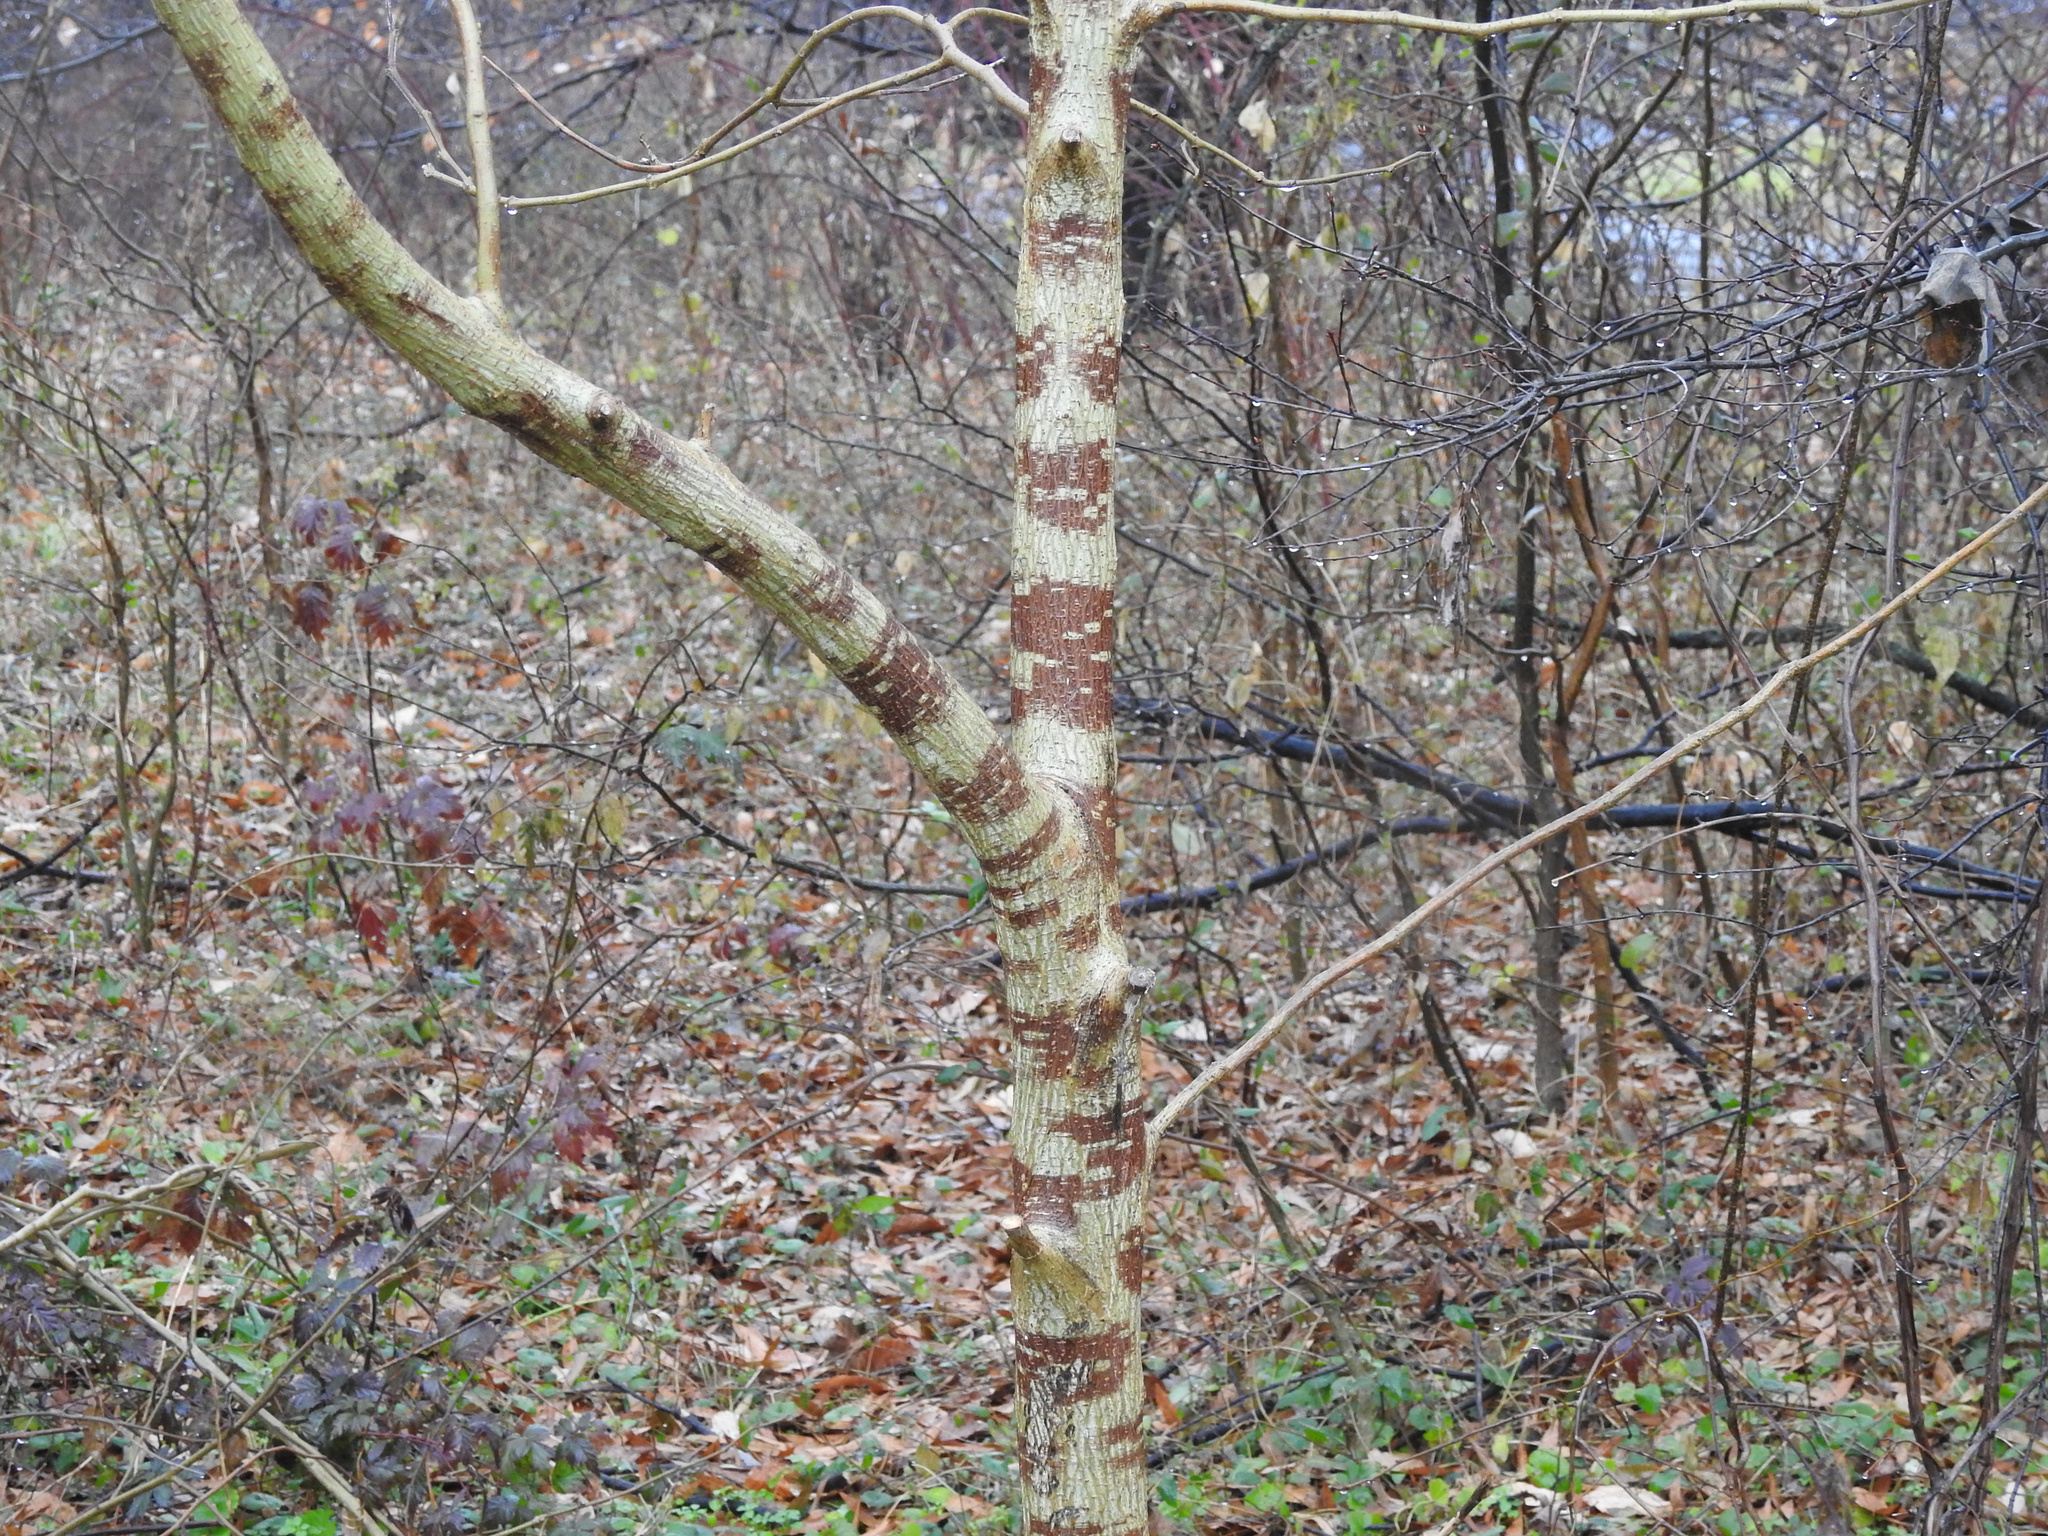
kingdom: Plantae
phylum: Tracheophyta
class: Magnoliopsida
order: Rosales
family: Moraceae
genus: Broussonetia
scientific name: Broussonetia papyrifera
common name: Paper mulberry
